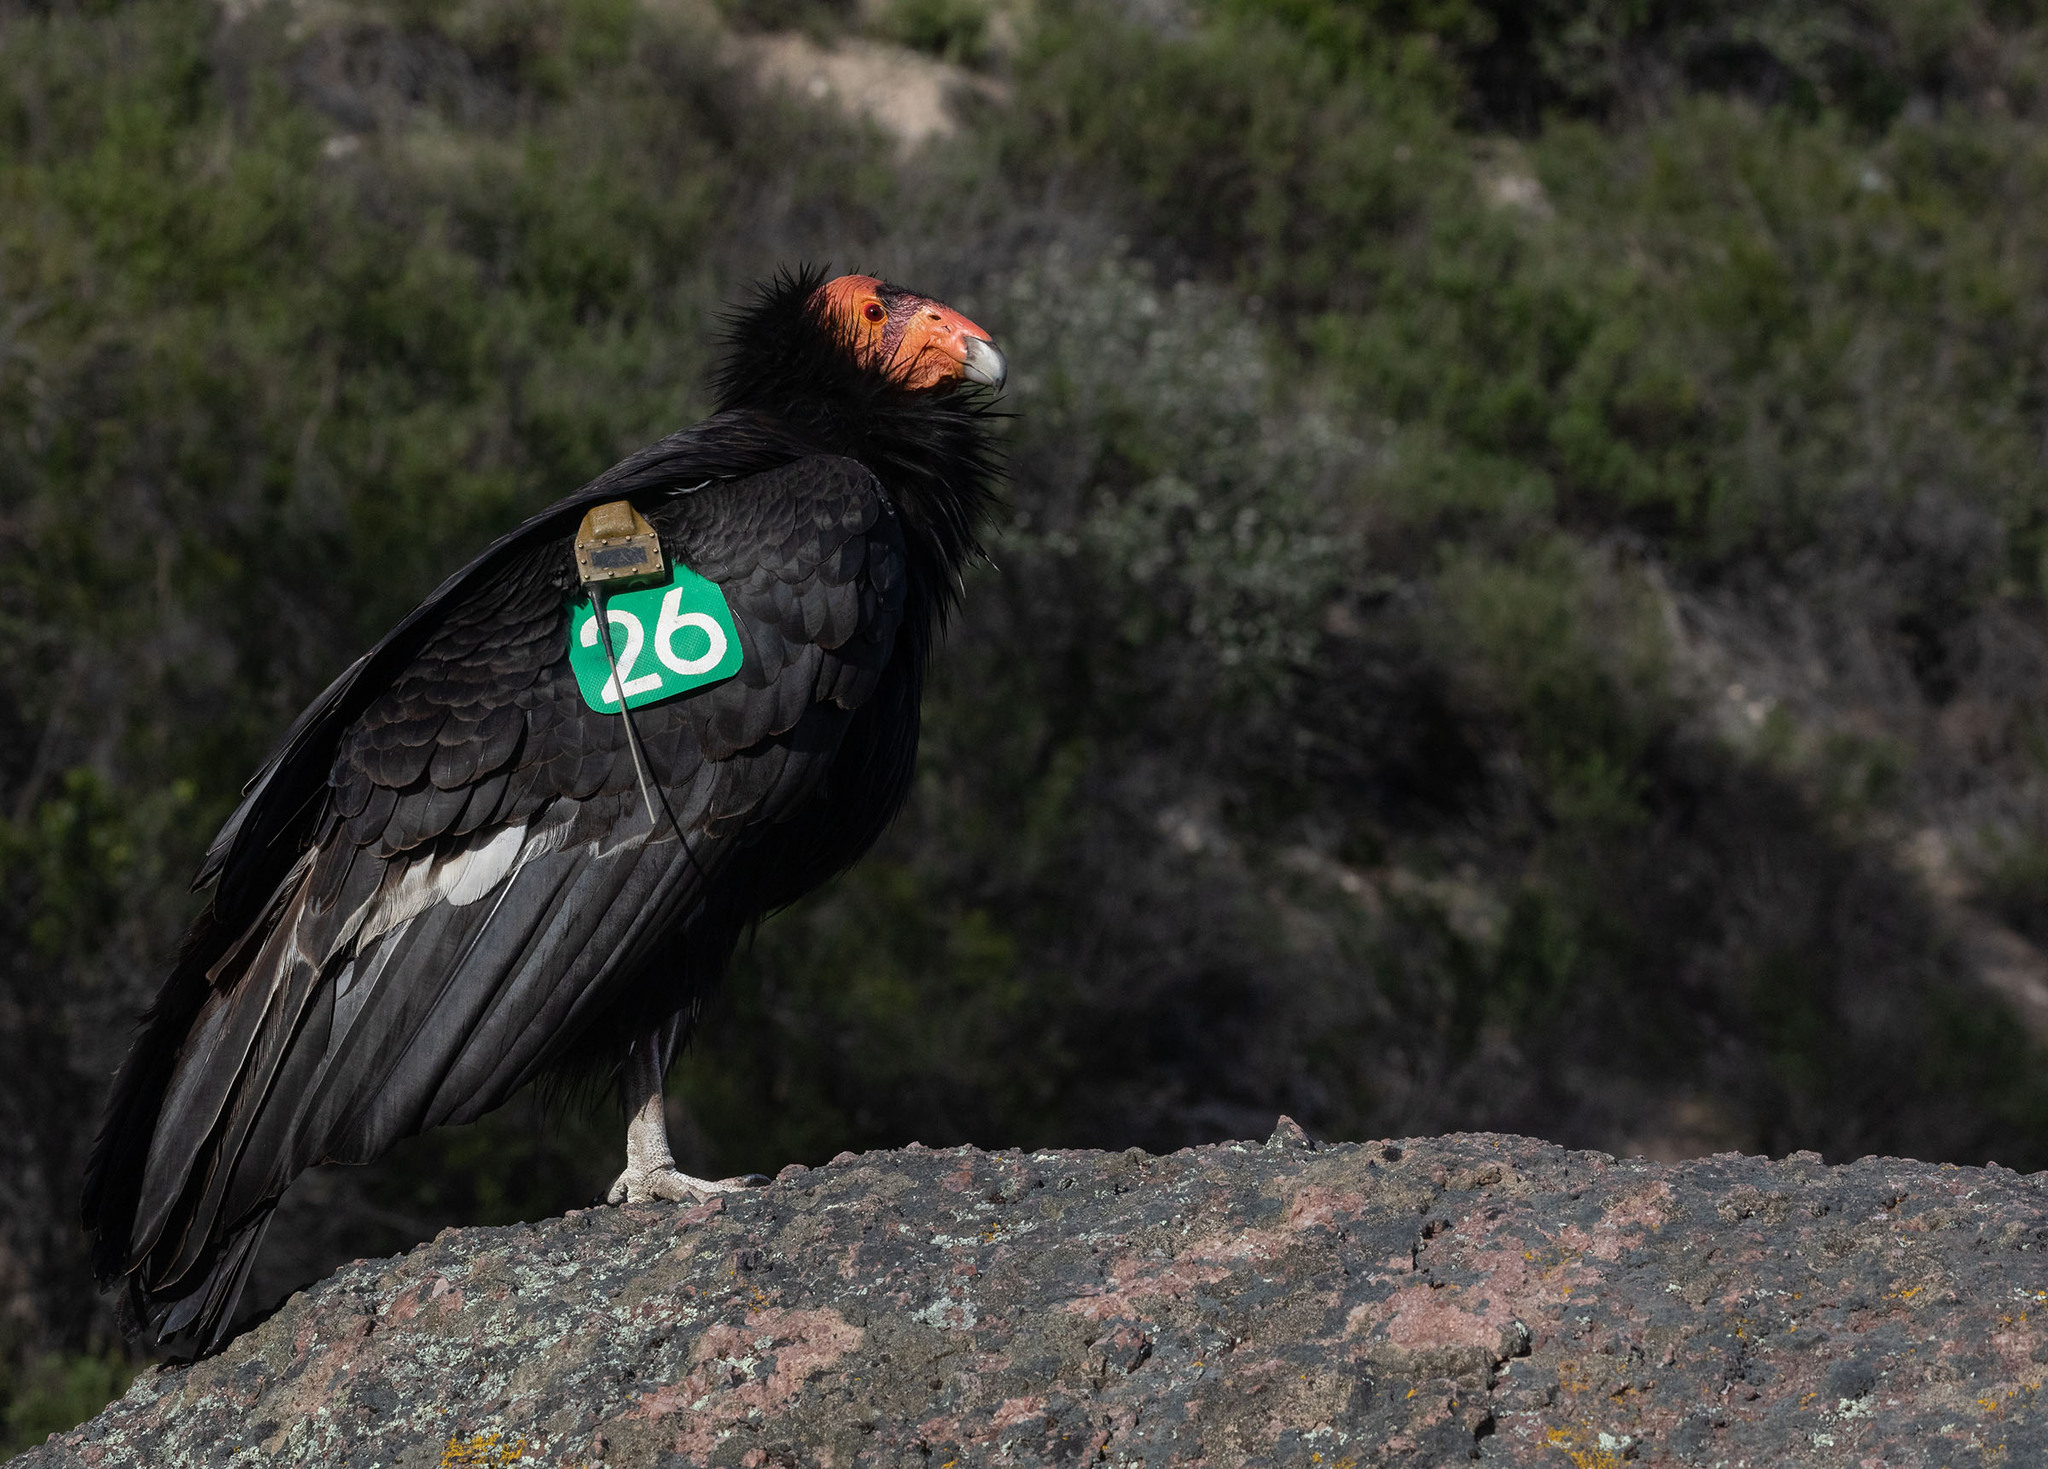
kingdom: Animalia
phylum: Chordata
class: Aves
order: Accipitriformes
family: Cathartidae
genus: Gymnogyps
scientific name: Gymnogyps californianus
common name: California condor
